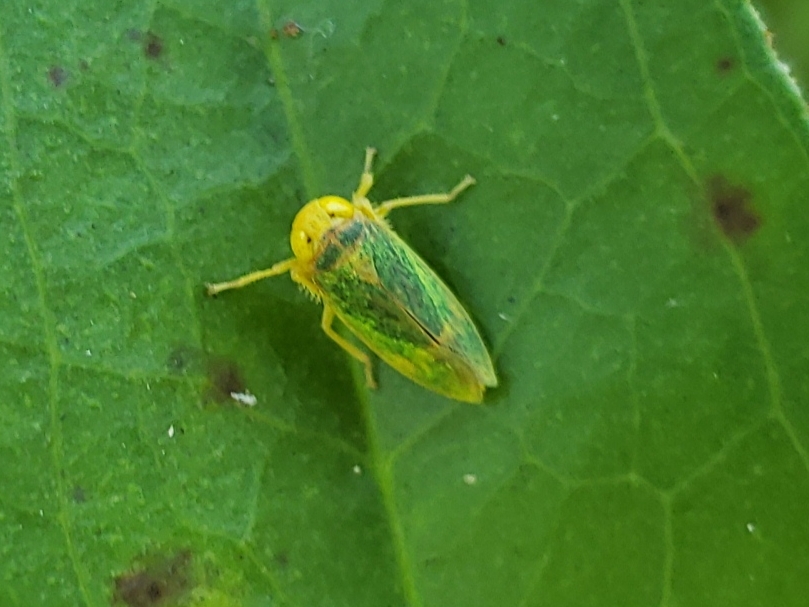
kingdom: Animalia
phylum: Arthropoda
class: Insecta
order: Hemiptera
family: Cicadellidae
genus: Jikradia
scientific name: Jikradia olitoria
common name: Coppery leafhopper
